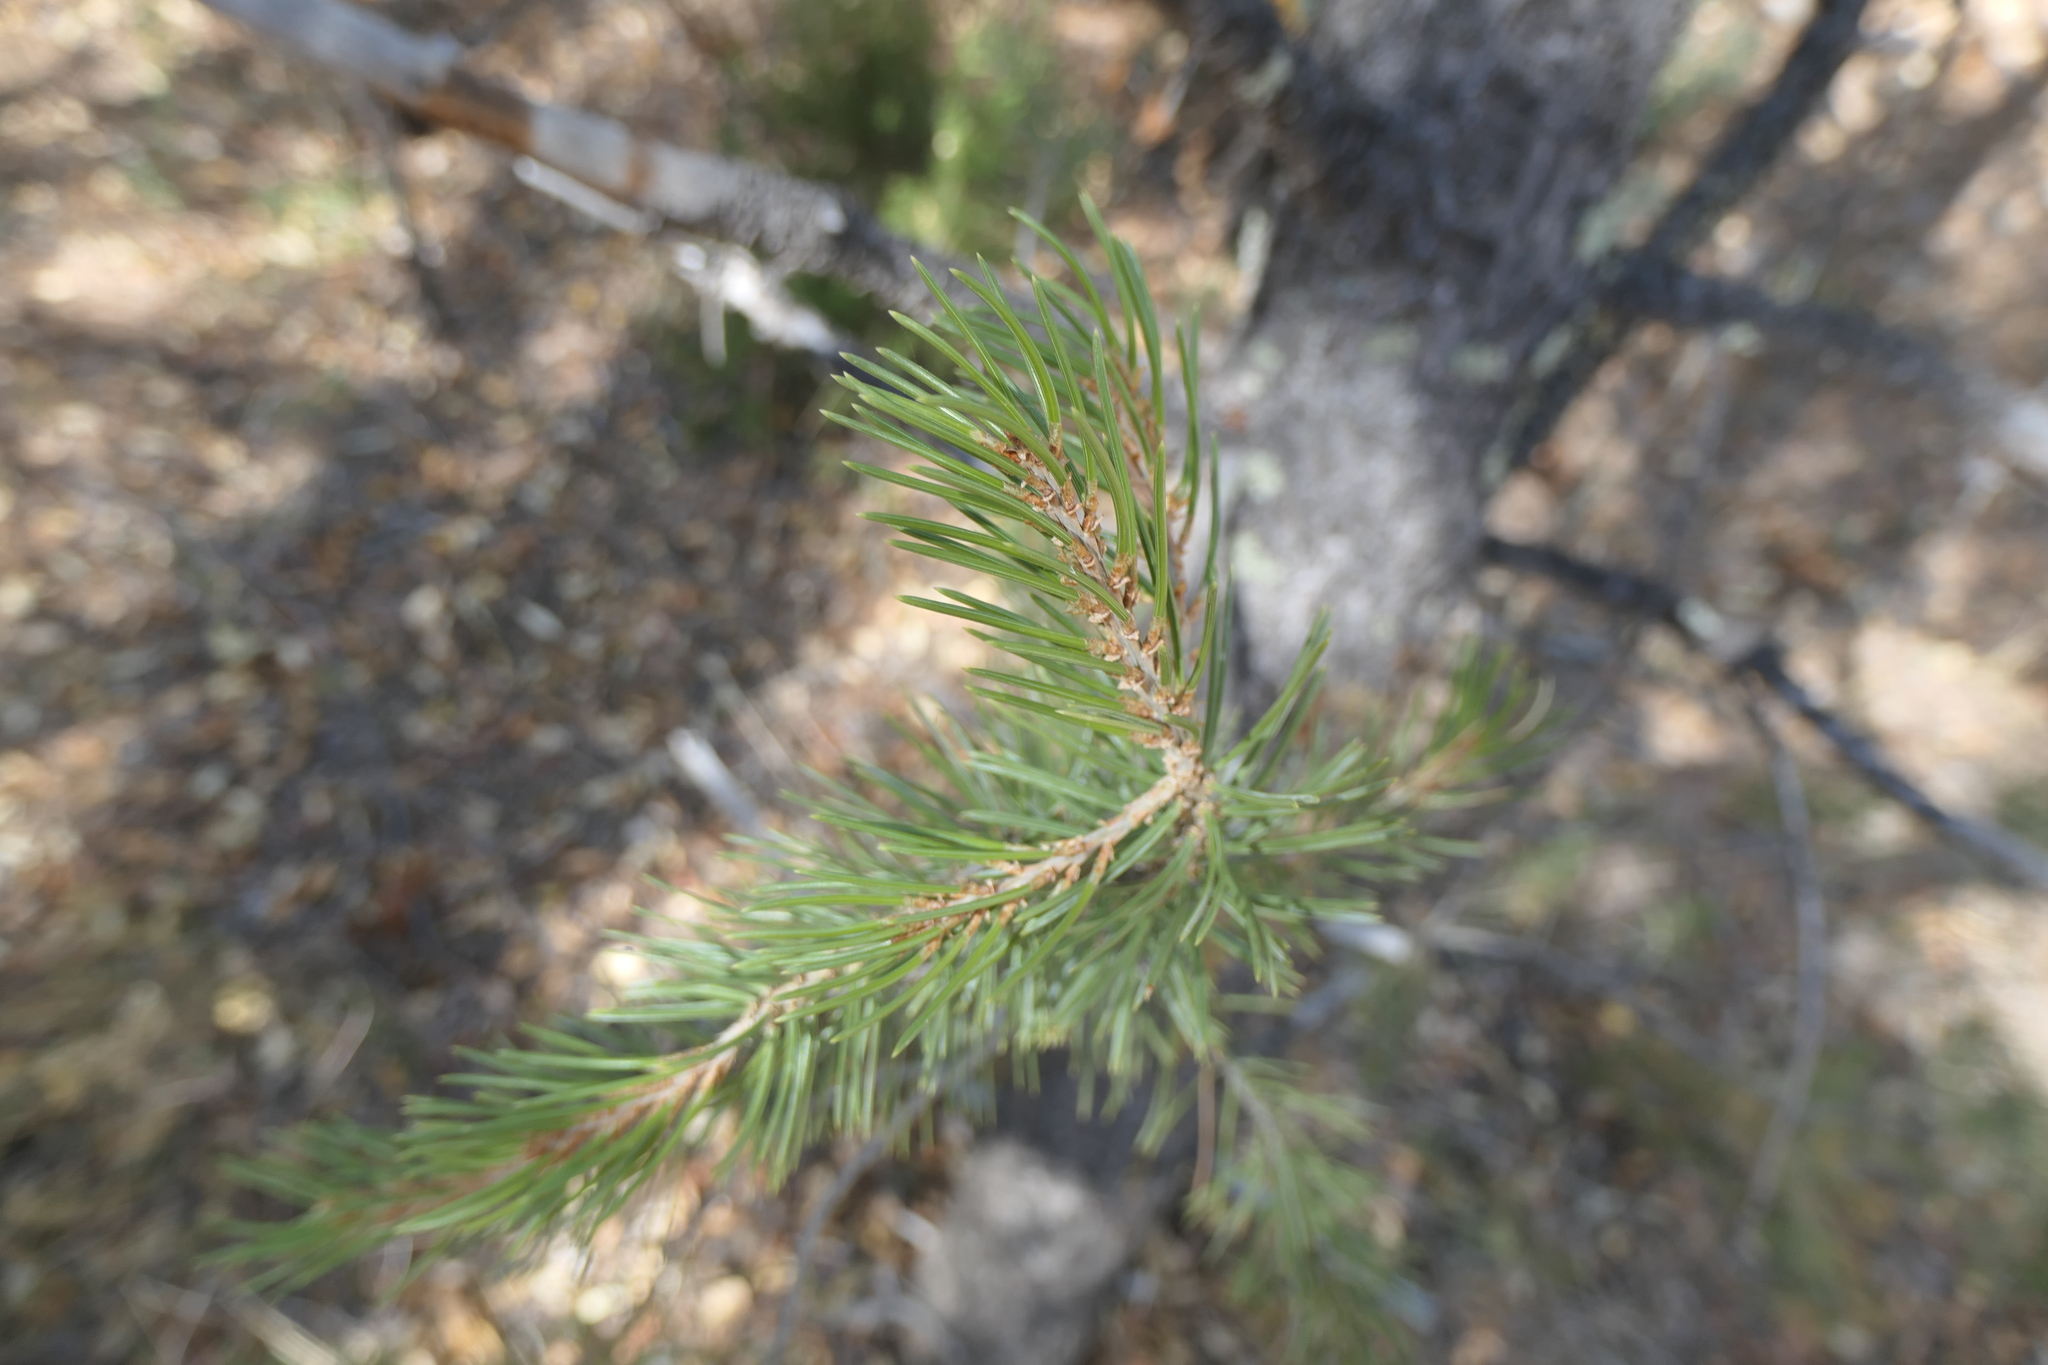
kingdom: Plantae
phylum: Tracheophyta
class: Pinopsida
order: Pinales
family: Pinaceae
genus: Pinus
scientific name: Pinus edulis
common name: Colorado pinyon
